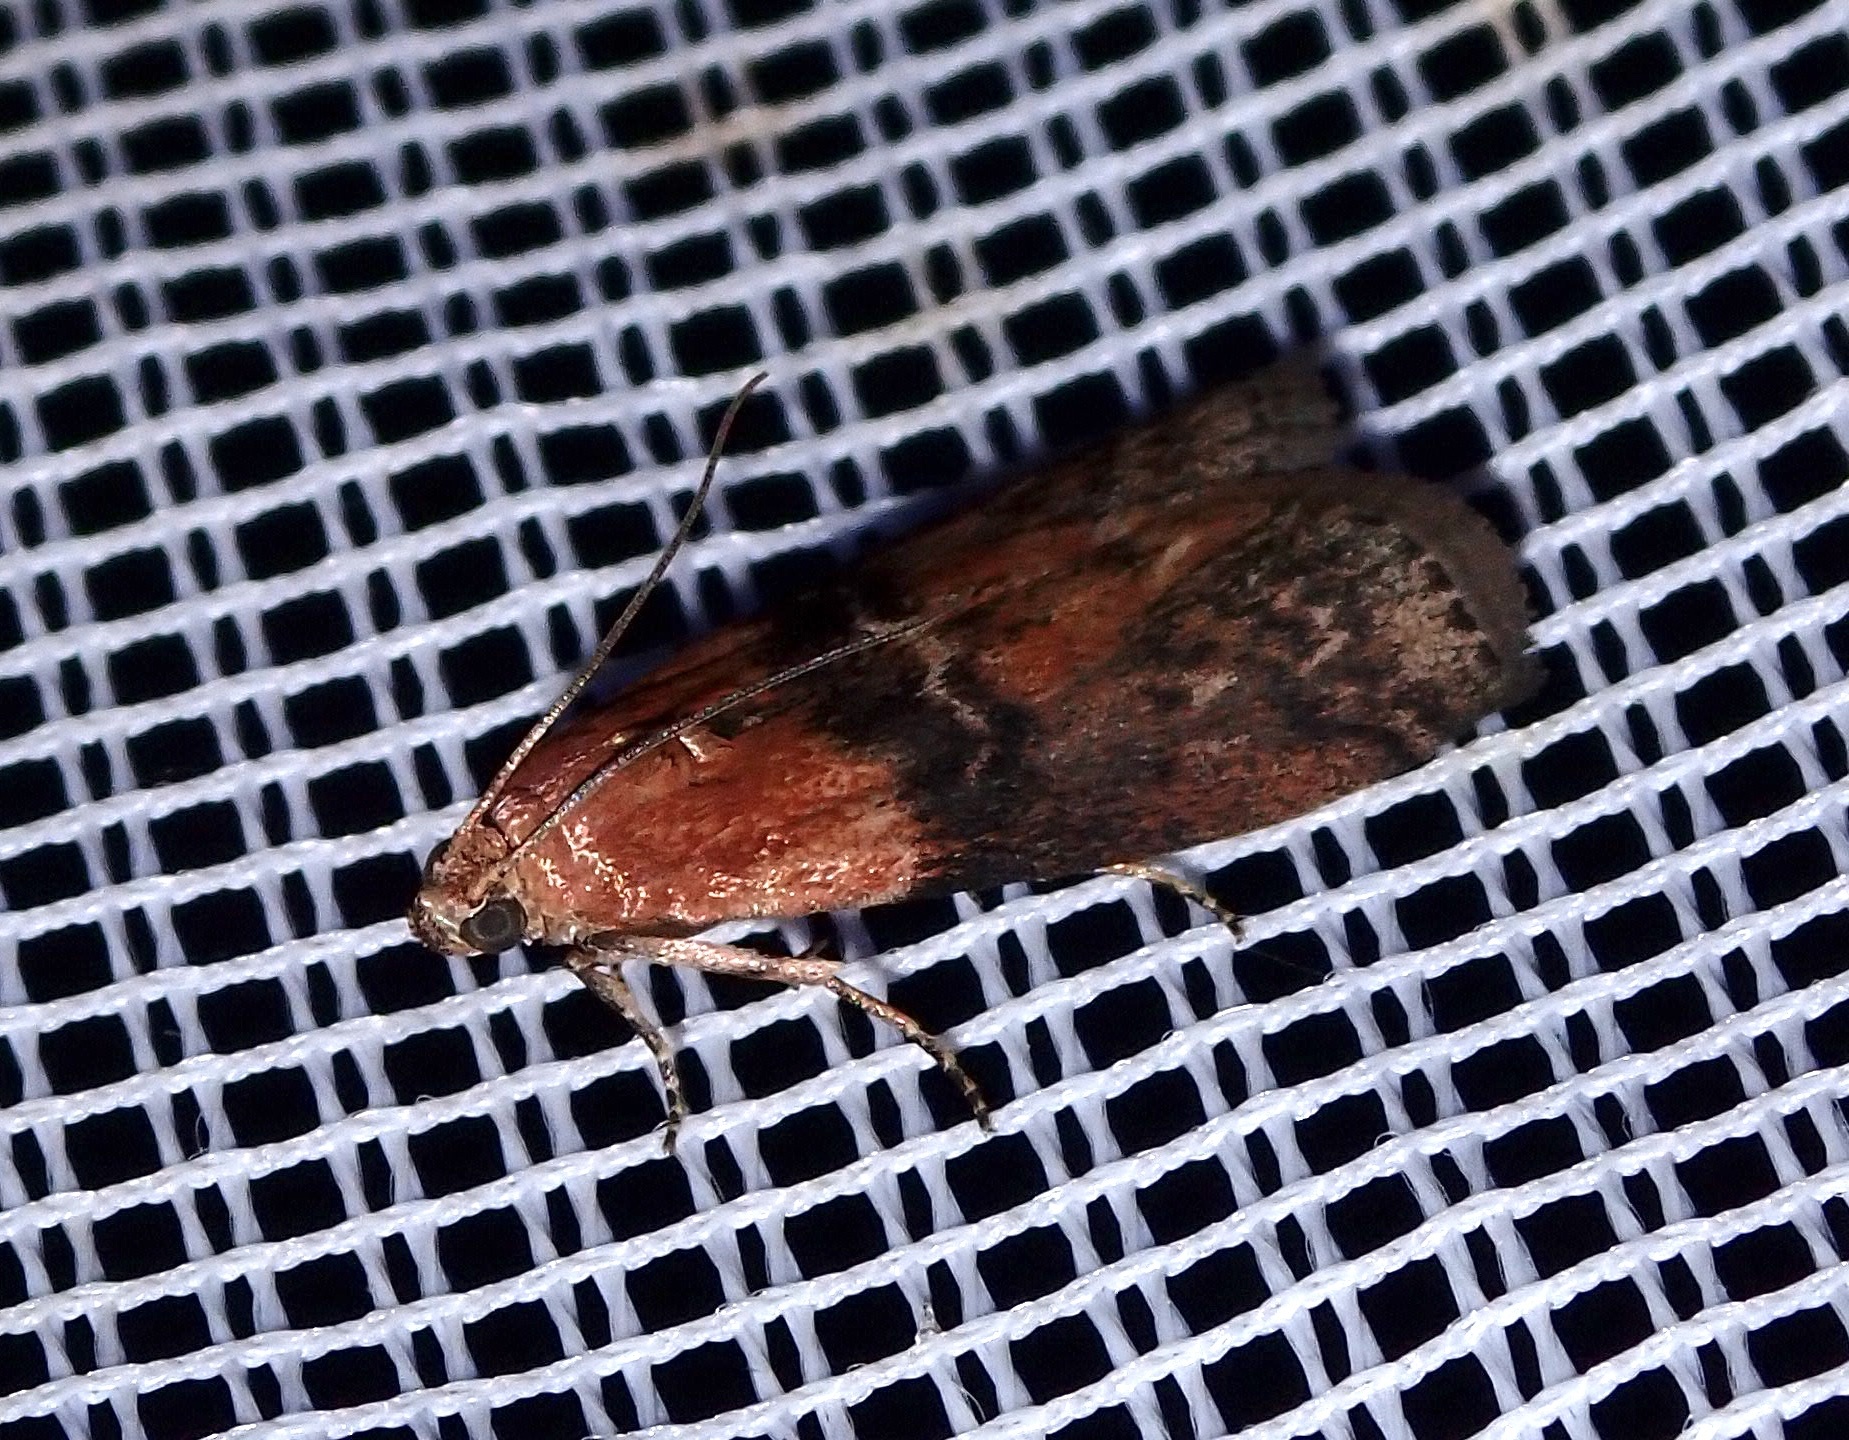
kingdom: Animalia
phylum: Arthropoda
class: Insecta
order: Lepidoptera
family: Pyralidae
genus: Sciota
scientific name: Sciota adelphella
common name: Willow knot-horn
